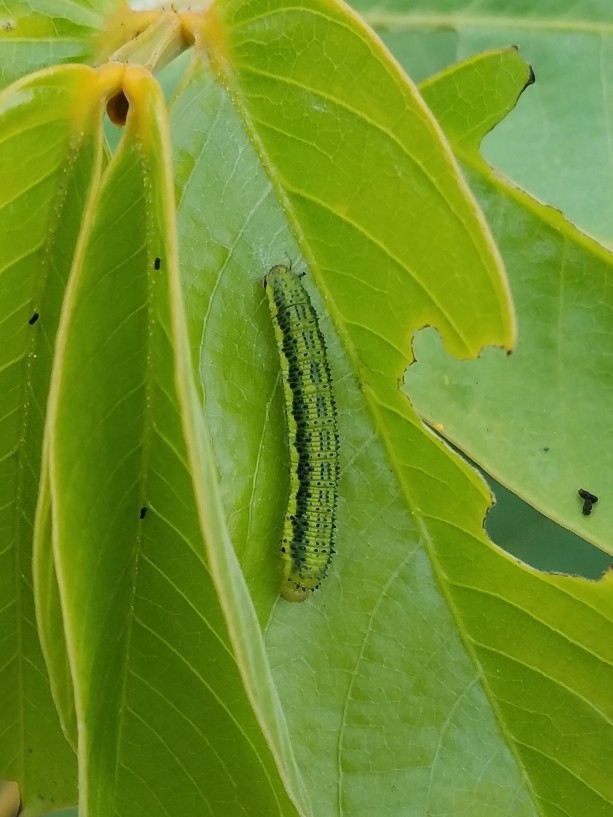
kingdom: Animalia
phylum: Arthropoda
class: Insecta
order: Lepidoptera
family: Pieridae
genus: Phoebis
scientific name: Phoebis philea
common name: Orange-barred giant sulphur
